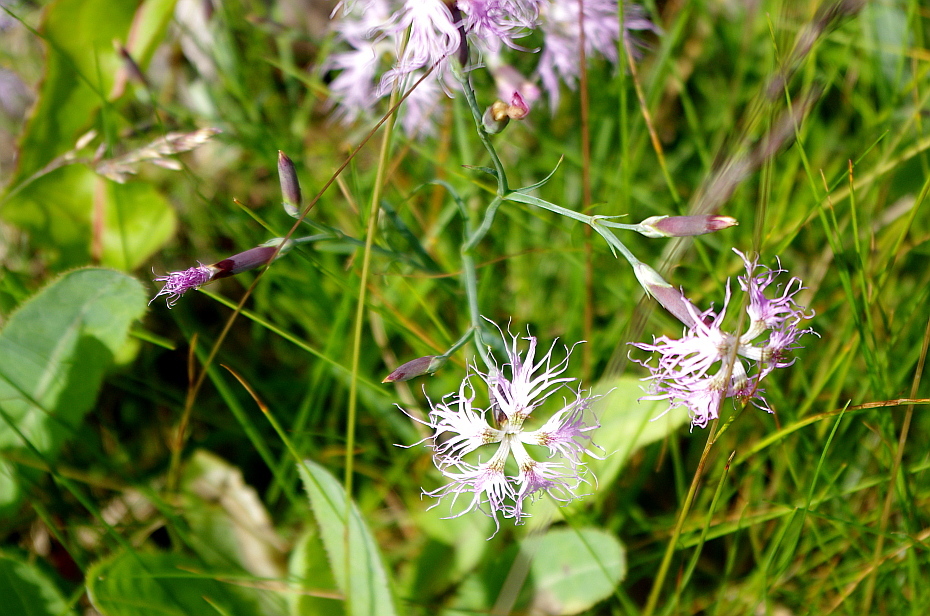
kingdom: Plantae
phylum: Tracheophyta
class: Magnoliopsida
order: Caryophyllales
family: Caryophyllaceae
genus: Dianthus
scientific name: Dianthus superbus
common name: Fringed pink
